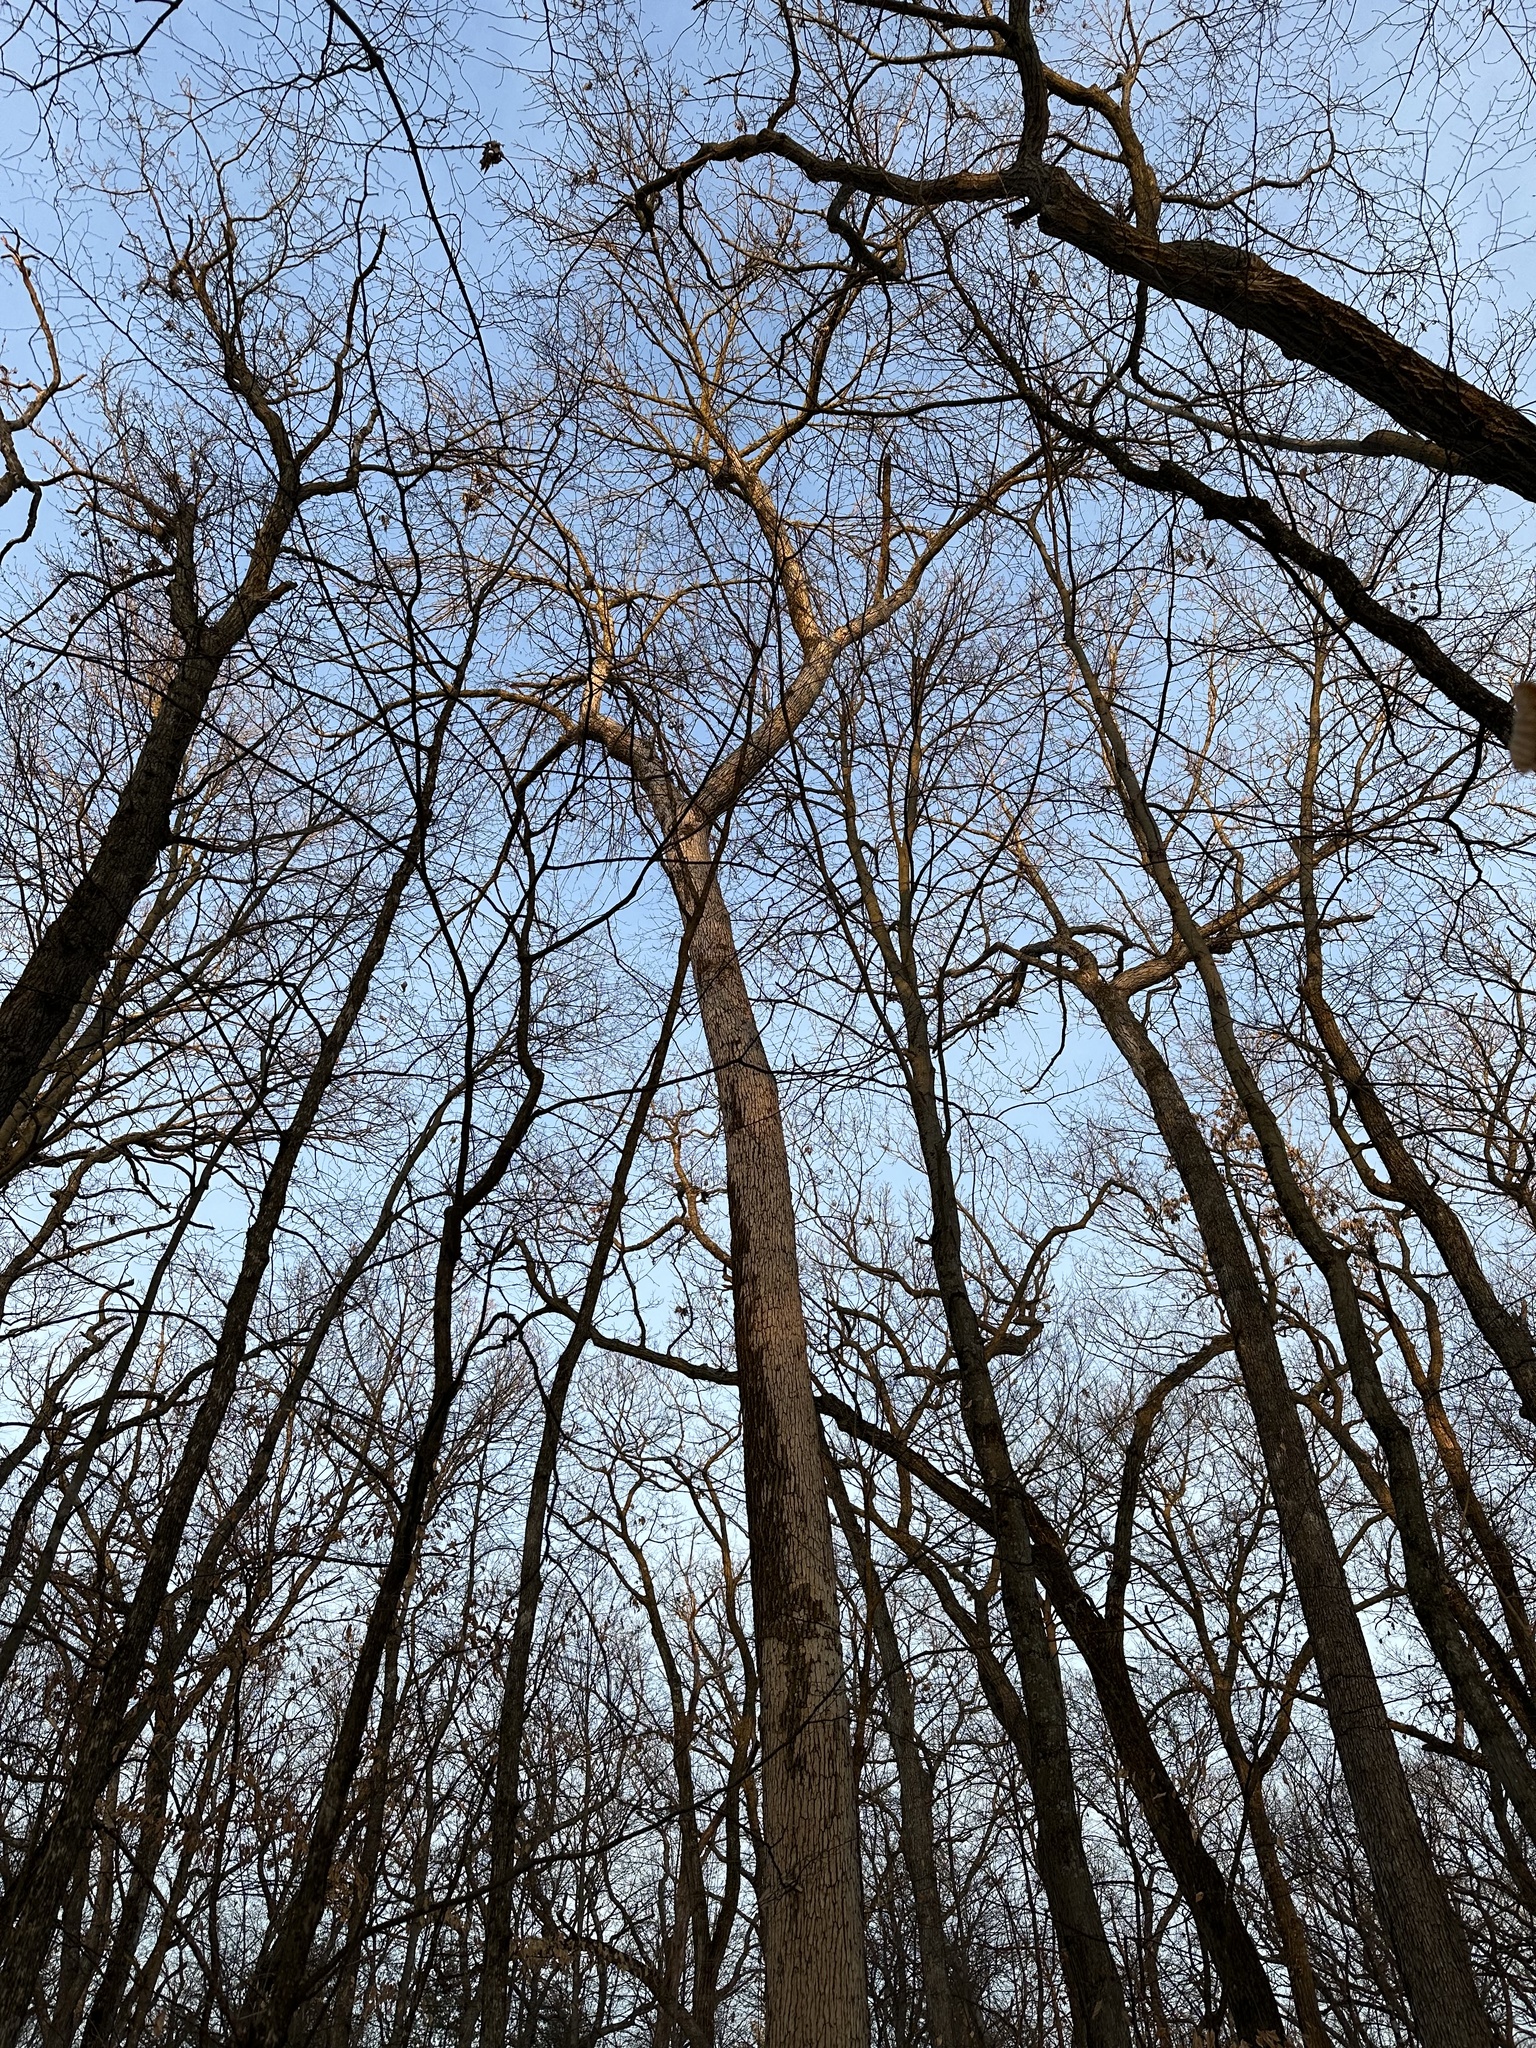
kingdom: Animalia
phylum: Arthropoda
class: Insecta
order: Coleoptera
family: Buprestidae
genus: Agrilus
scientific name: Agrilus planipennis
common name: Emerald ash borer
